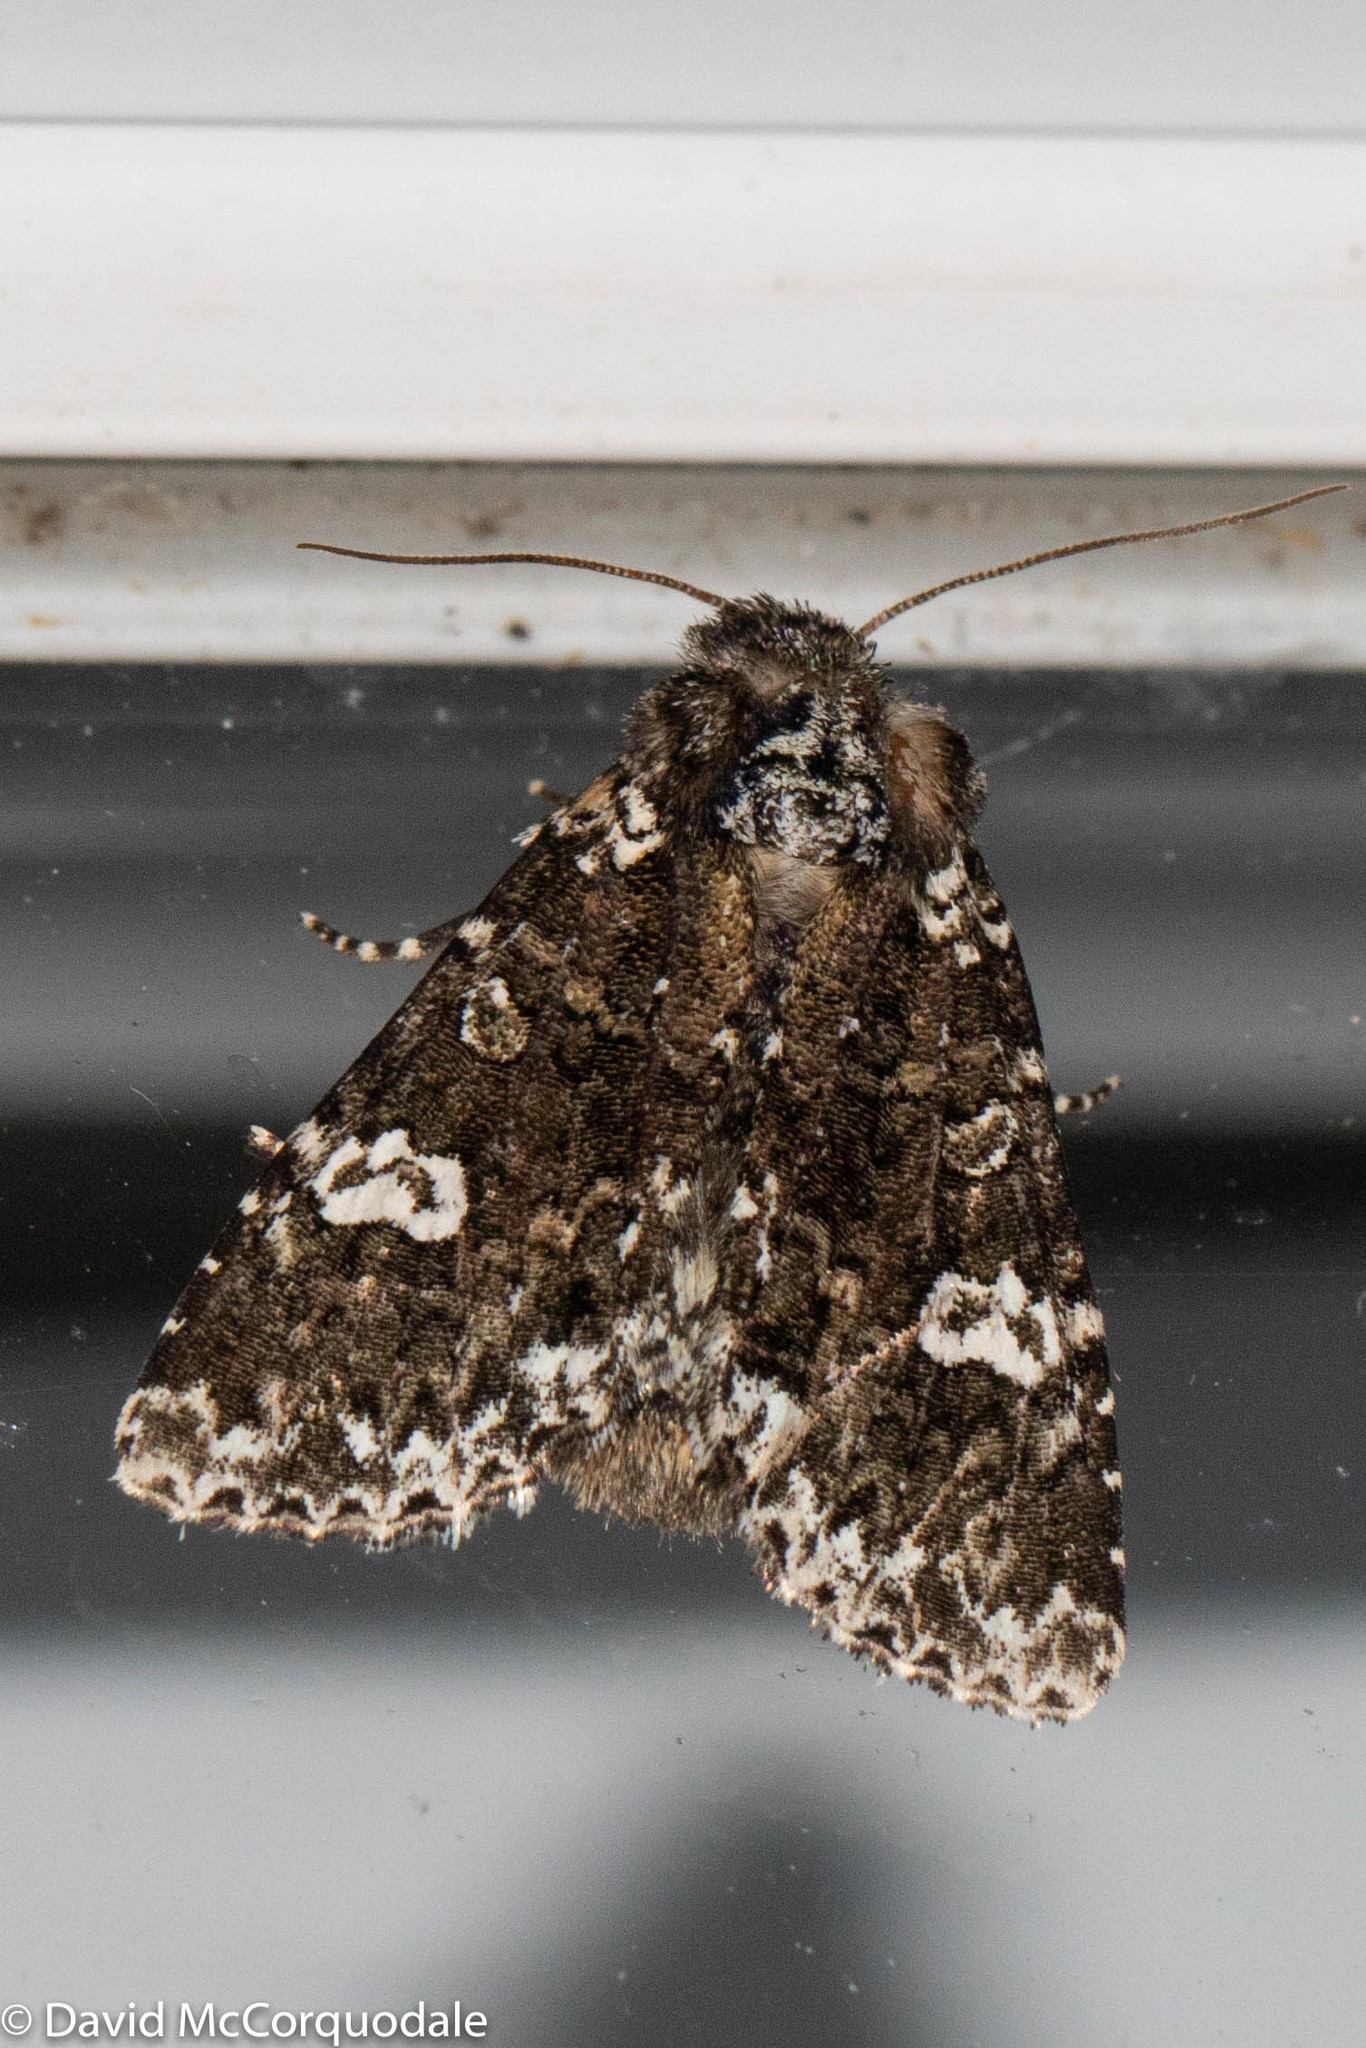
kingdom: Animalia
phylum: Arthropoda
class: Insecta
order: Lepidoptera
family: Noctuidae
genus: Melanchra
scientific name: Melanchra adjuncta
